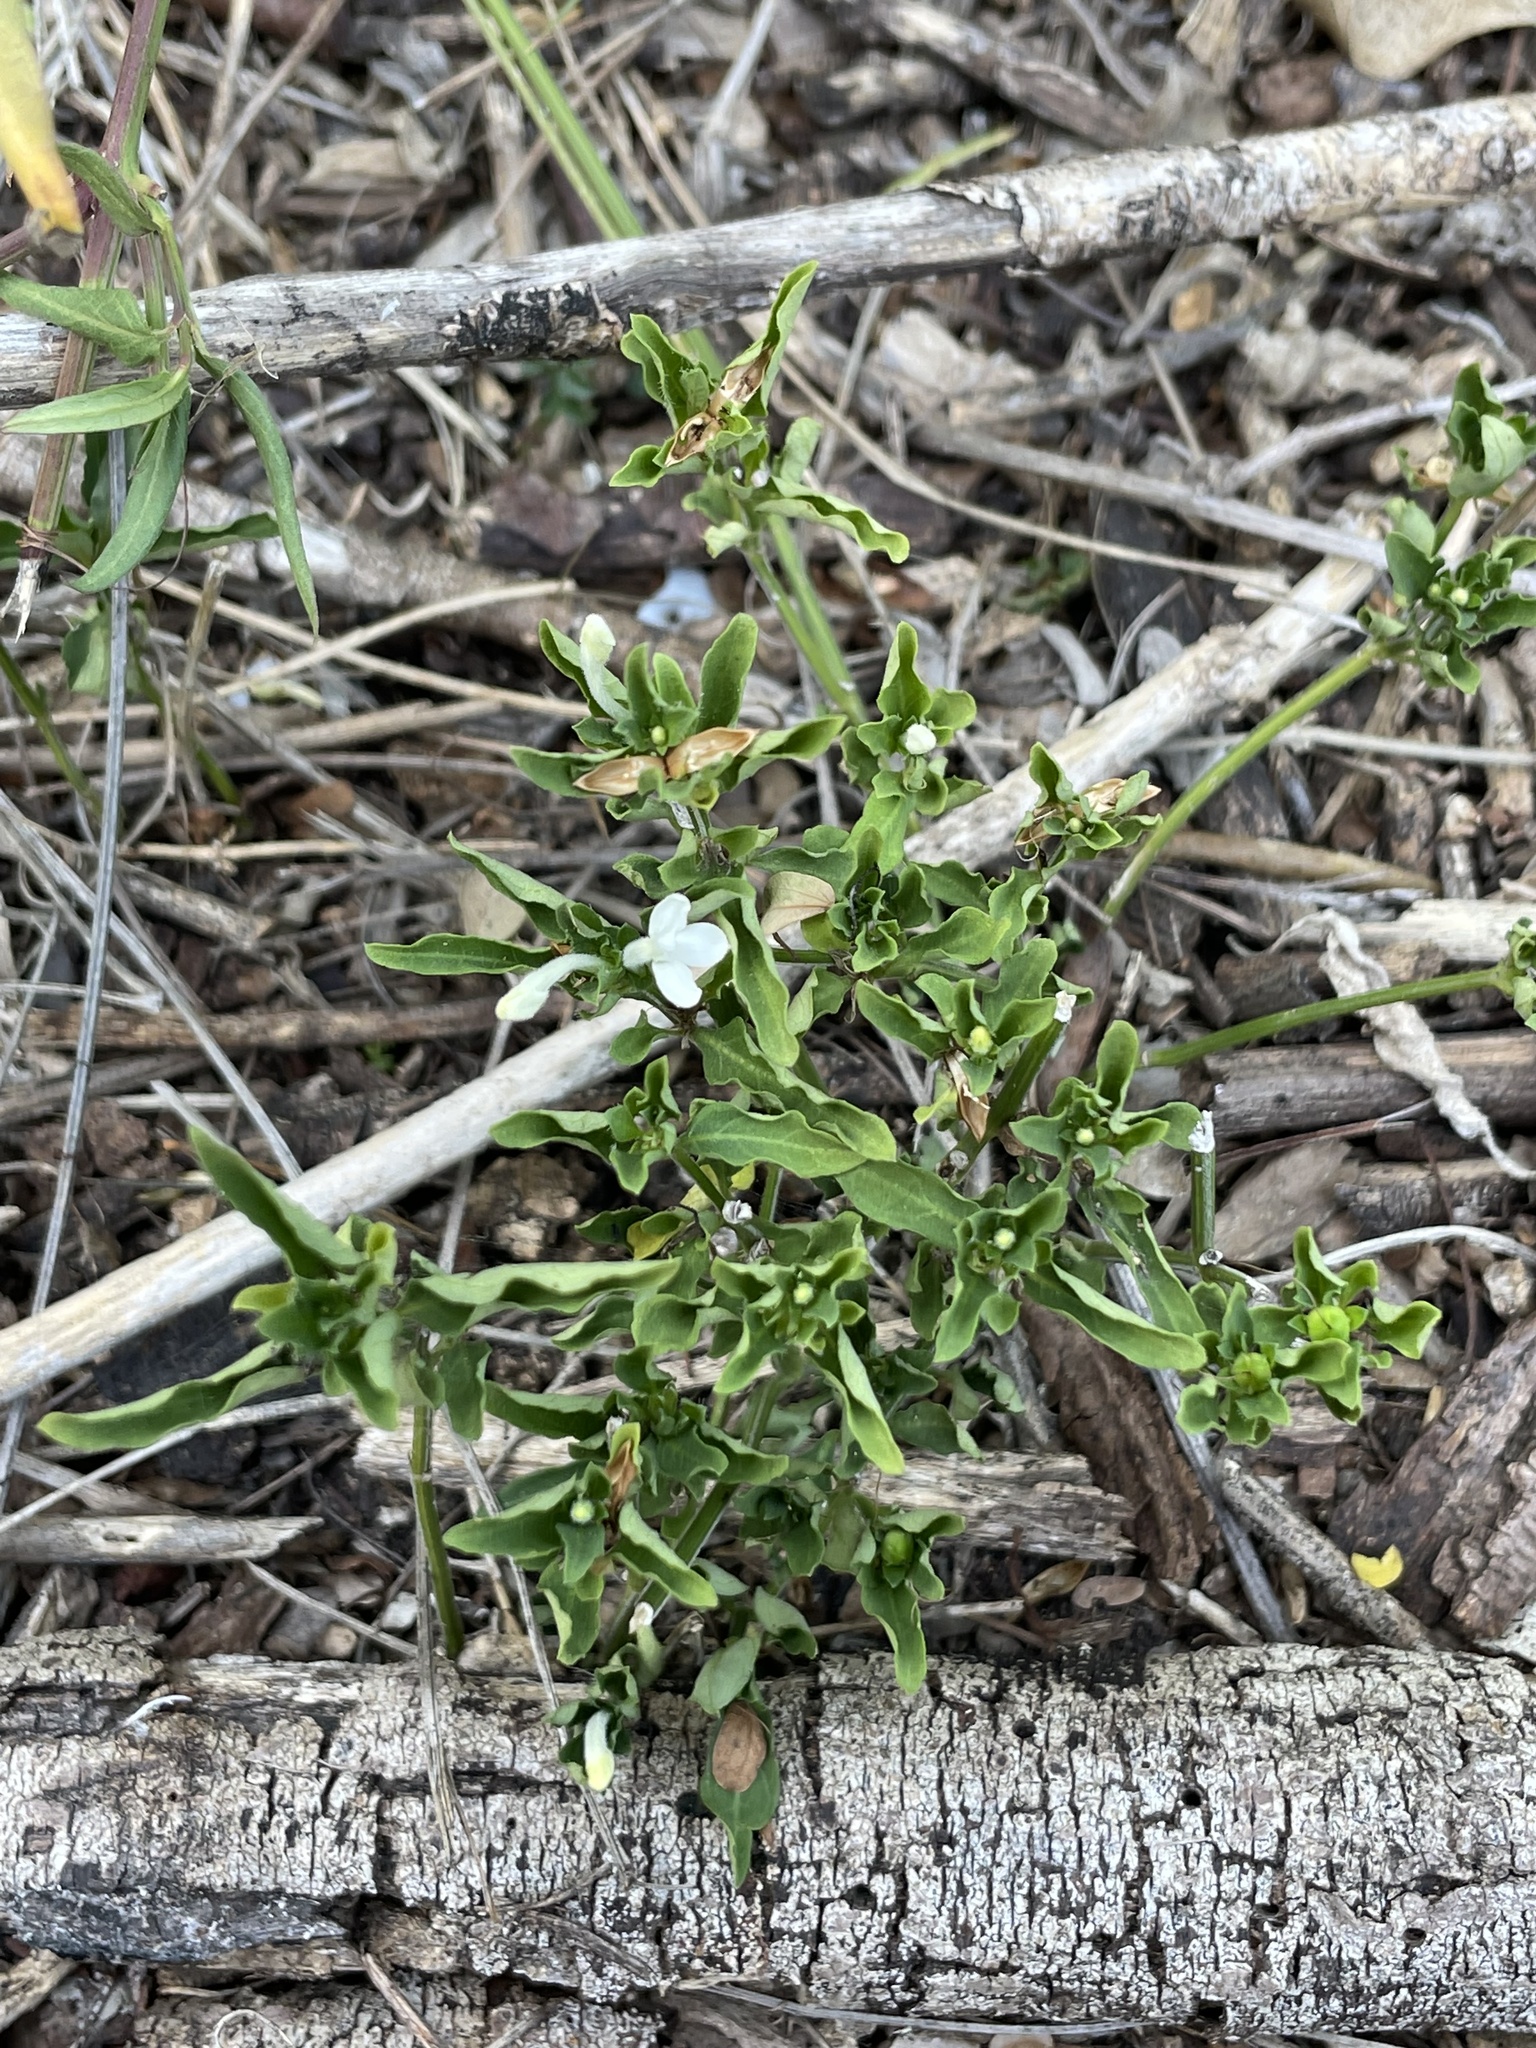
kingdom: Plantae
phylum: Tracheophyta
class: Magnoliopsida
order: Lamiales
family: Acanthaceae
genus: Justicia
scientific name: Justicia pilosella
